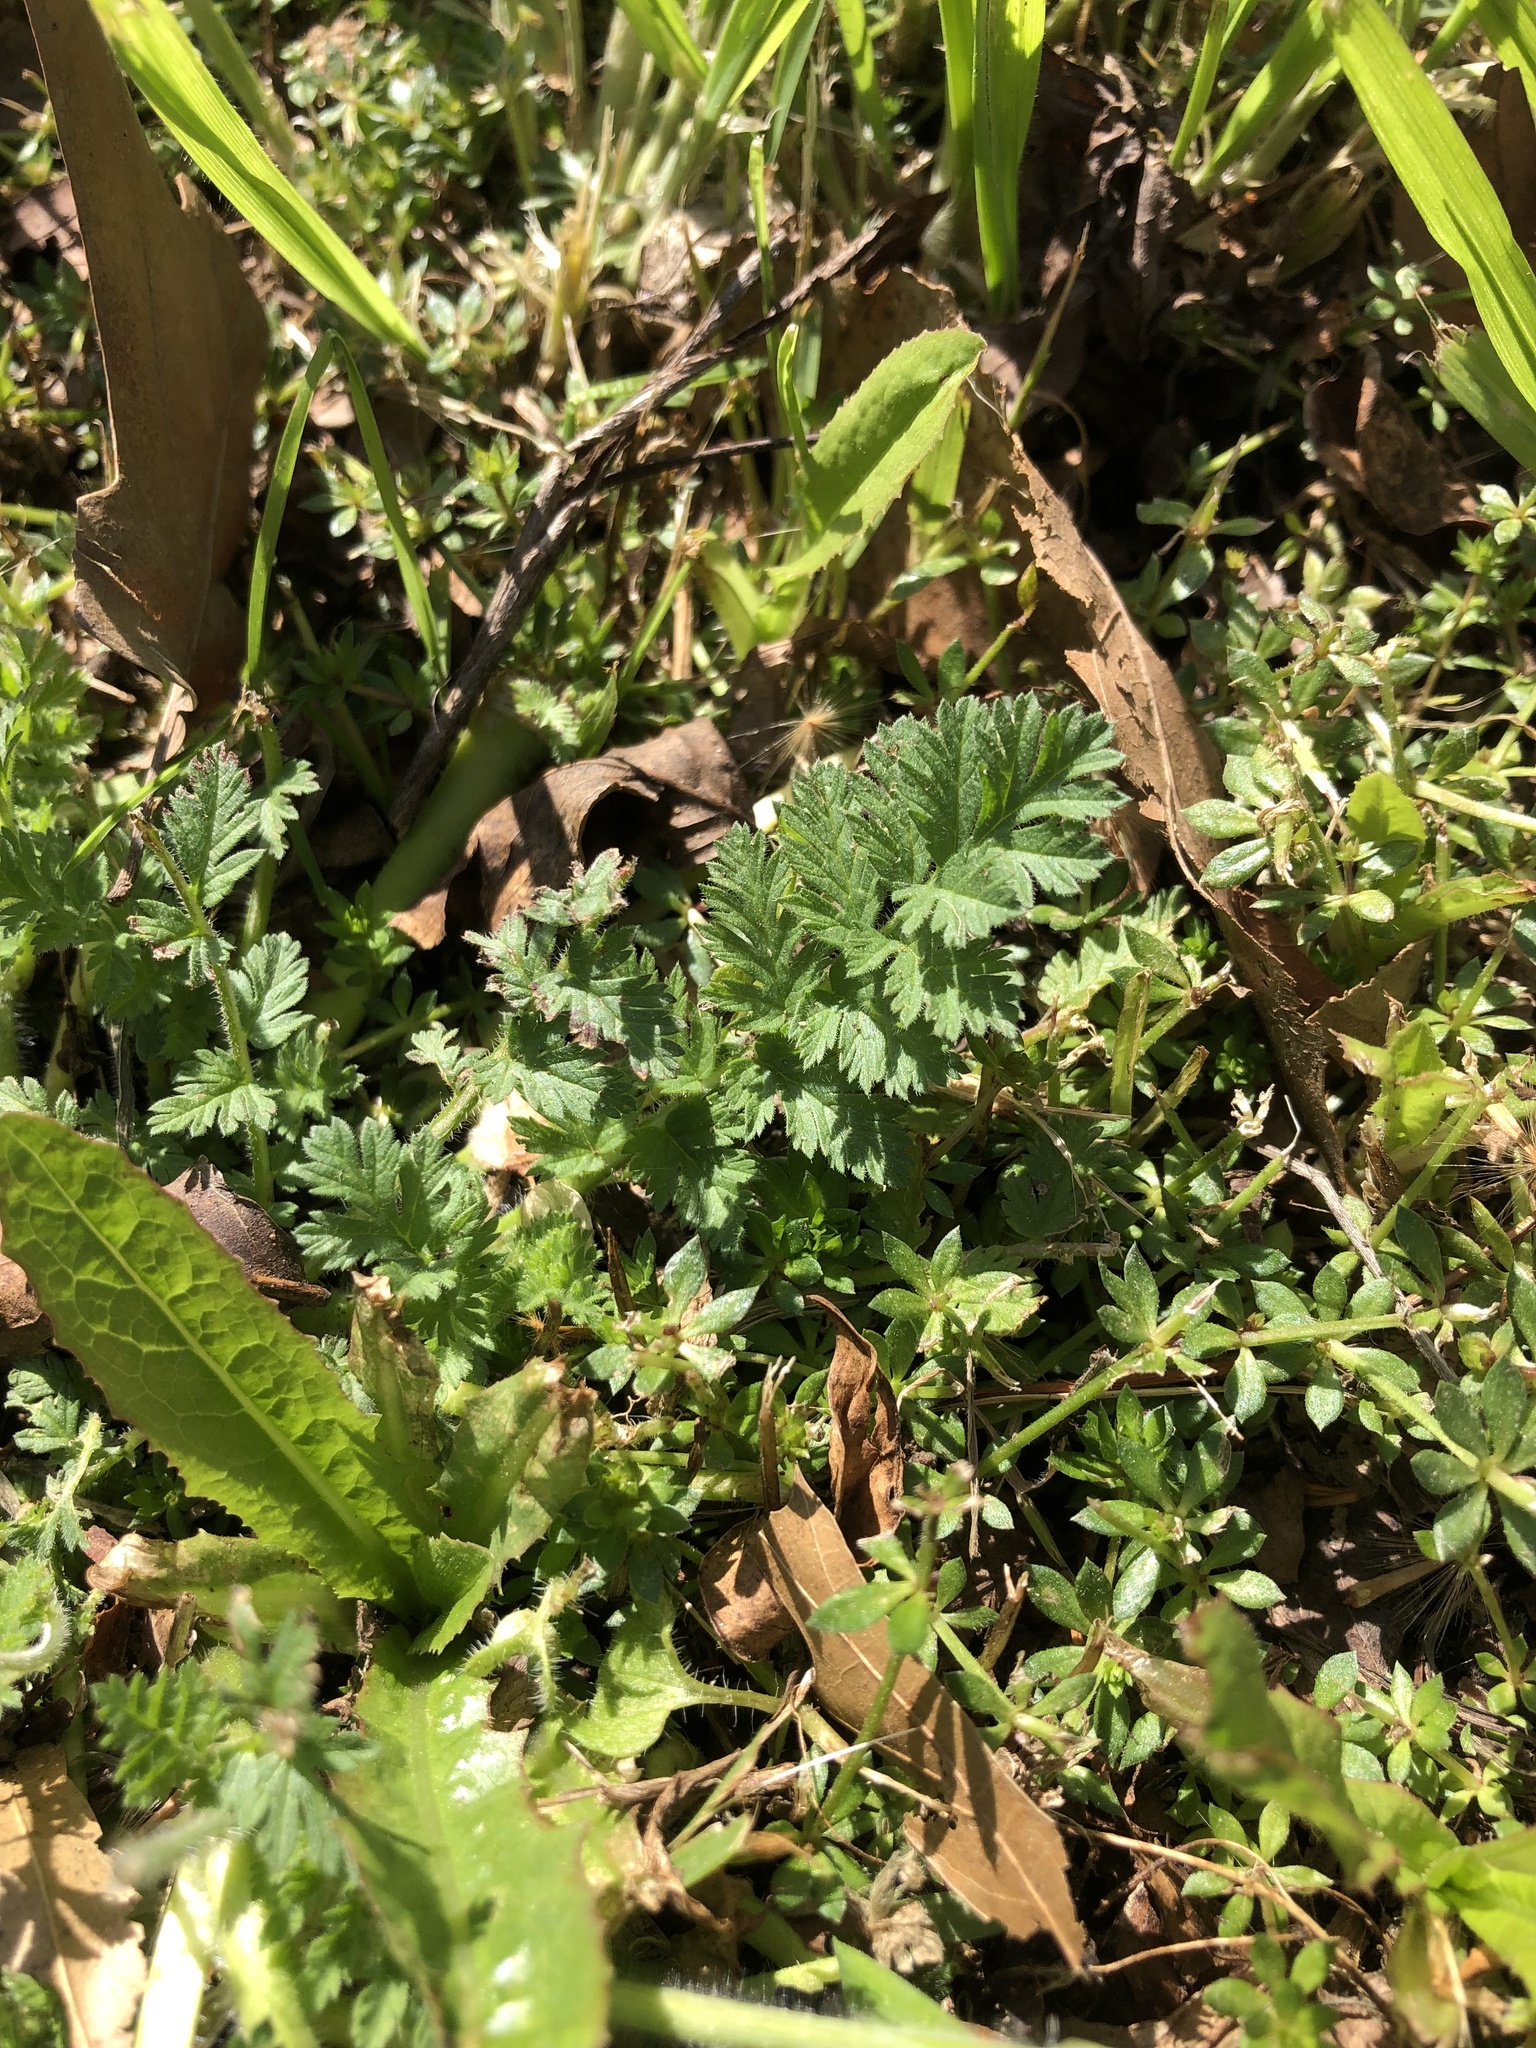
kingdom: Plantae
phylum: Tracheophyta
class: Magnoliopsida
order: Geraniales
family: Geraniaceae
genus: Erodium
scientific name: Erodium cicutarium
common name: Common stork's-bill
